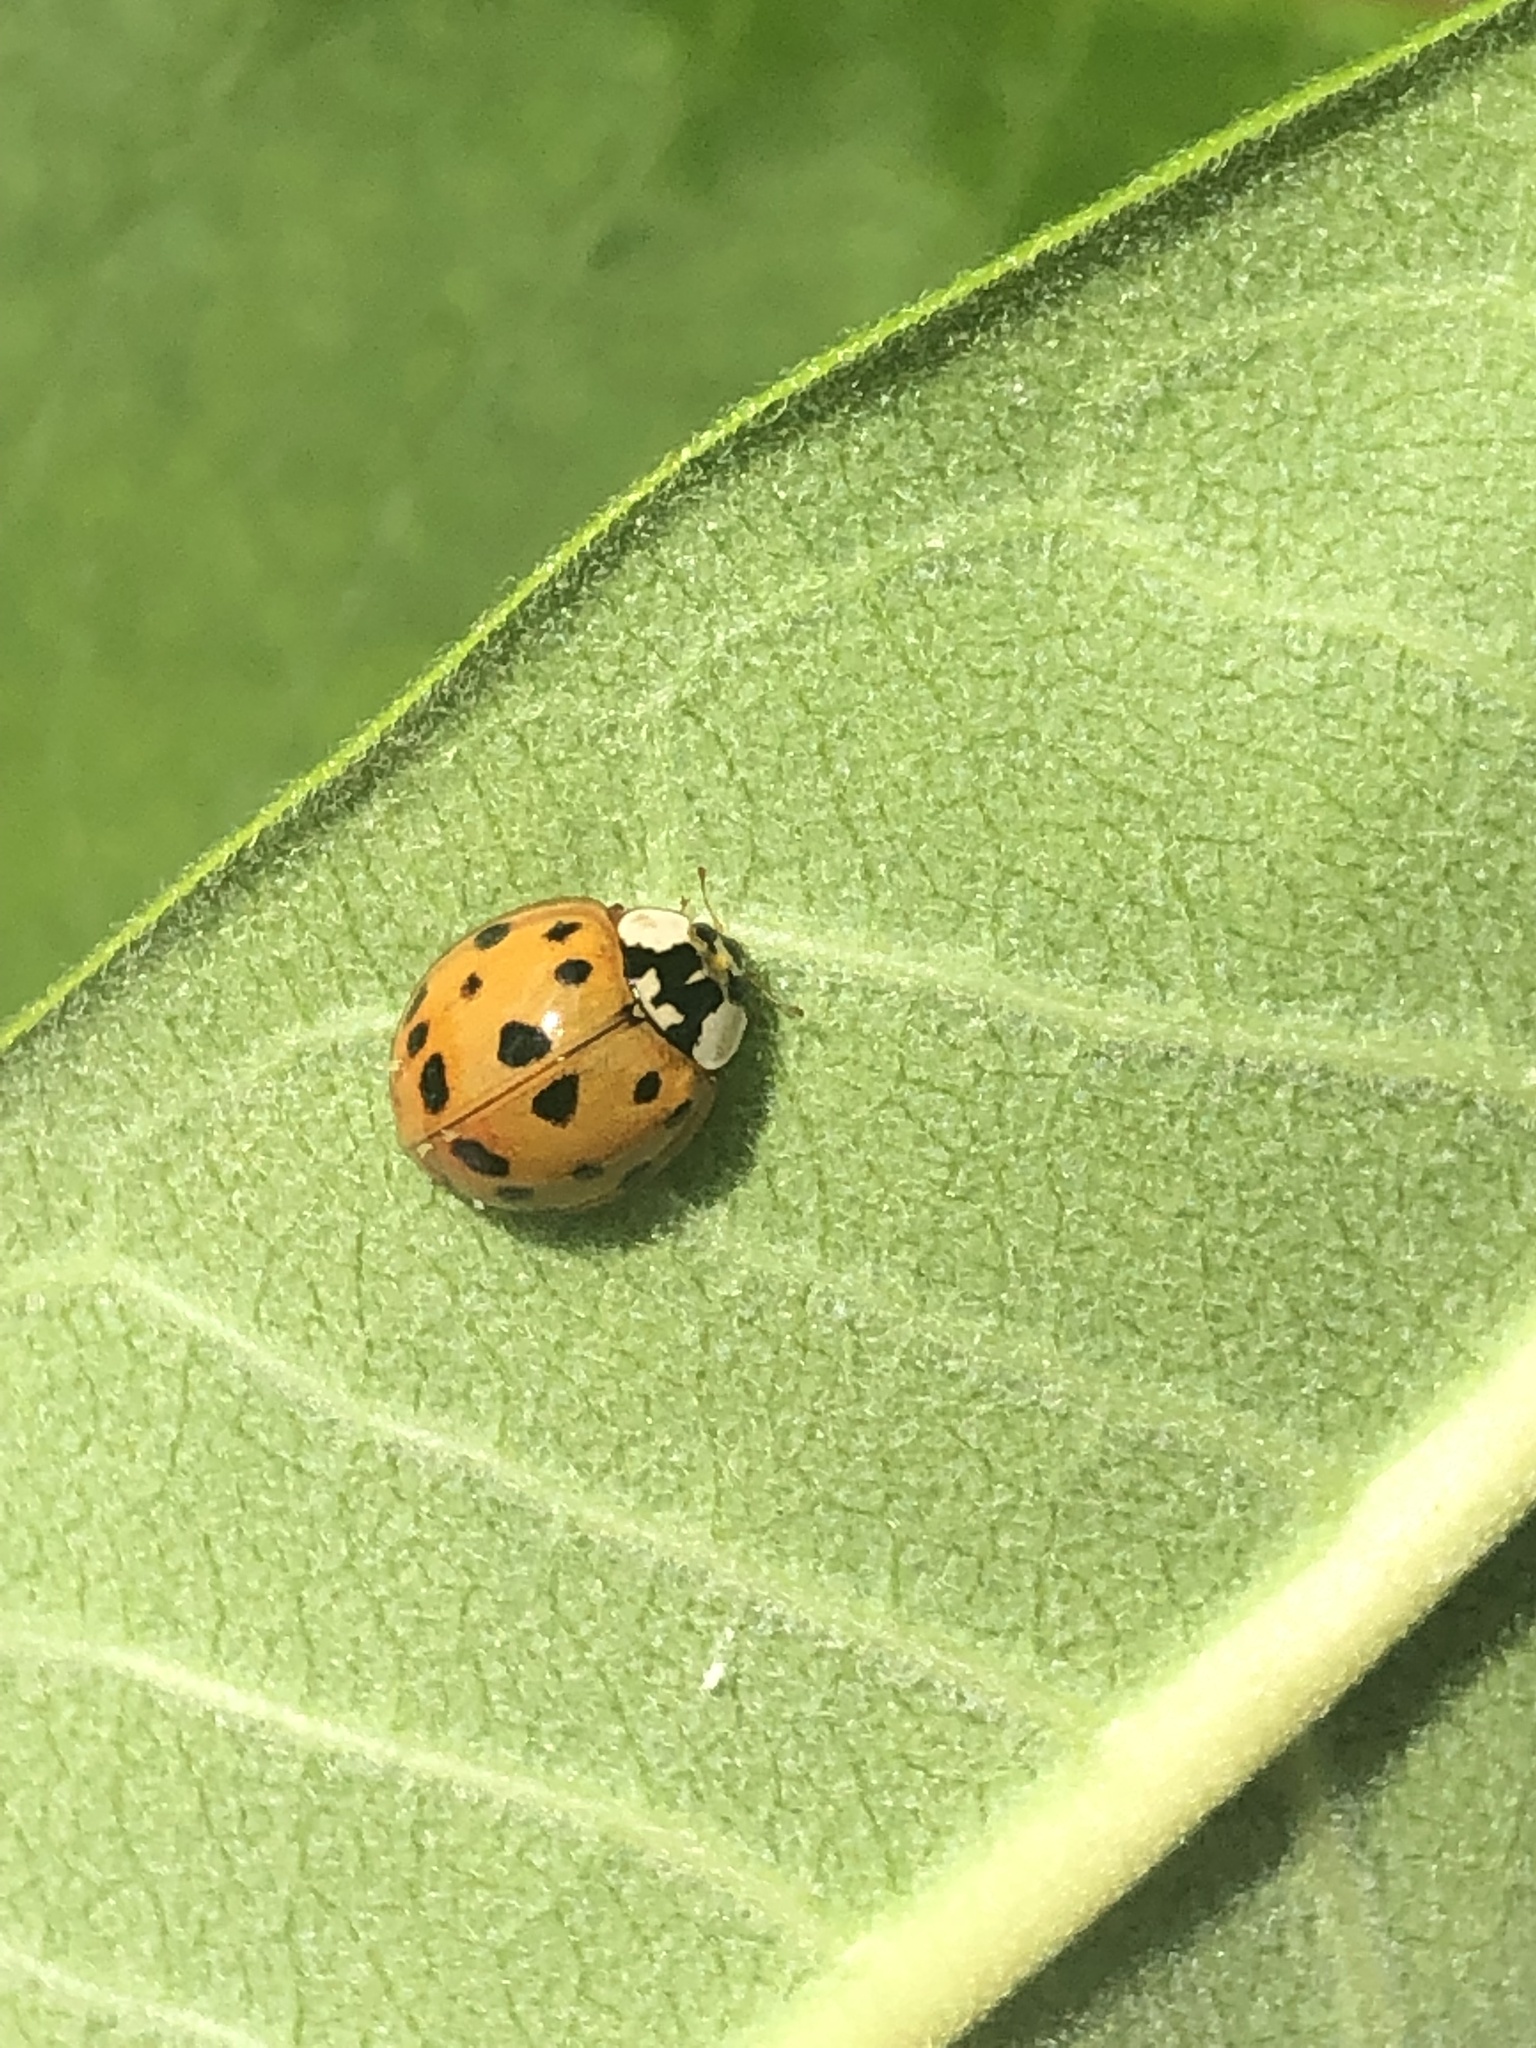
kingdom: Animalia
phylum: Arthropoda
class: Insecta
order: Coleoptera
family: Coccinellidae
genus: Harmonia
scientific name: Harmonia axyridis
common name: Harlequin ladybird
